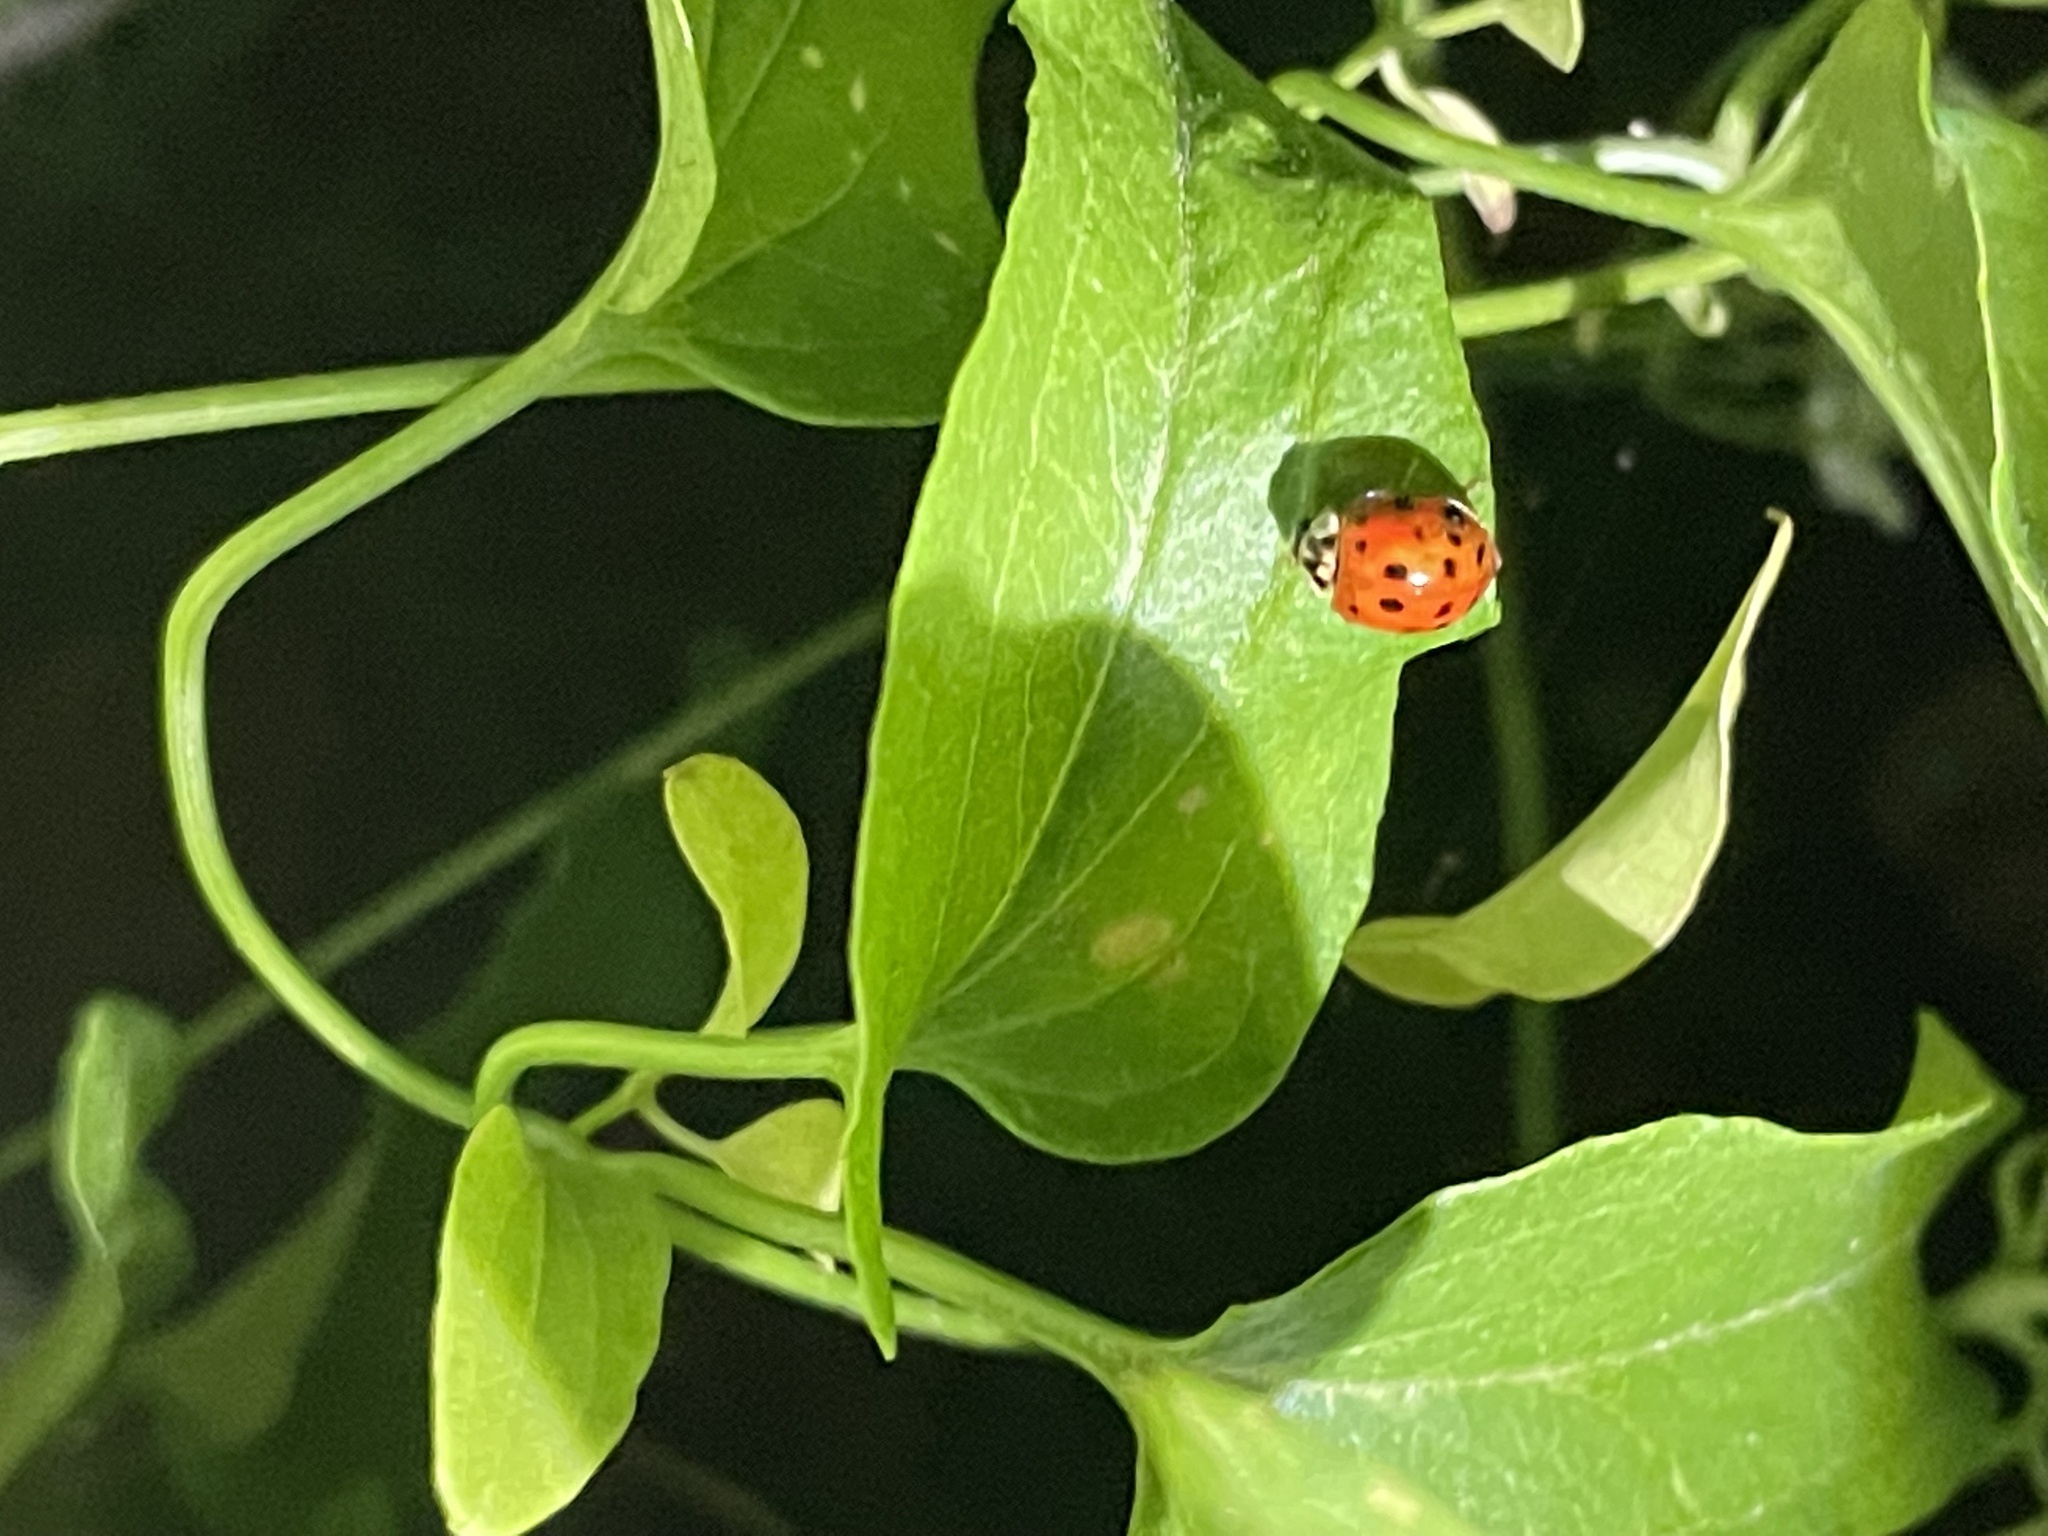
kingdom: Animalia
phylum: Arthropoda
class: Insecta
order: Coleoptera
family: Coccinellidae
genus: Harmonia
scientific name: Harmonia axyridis
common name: Harlequin ladybird
